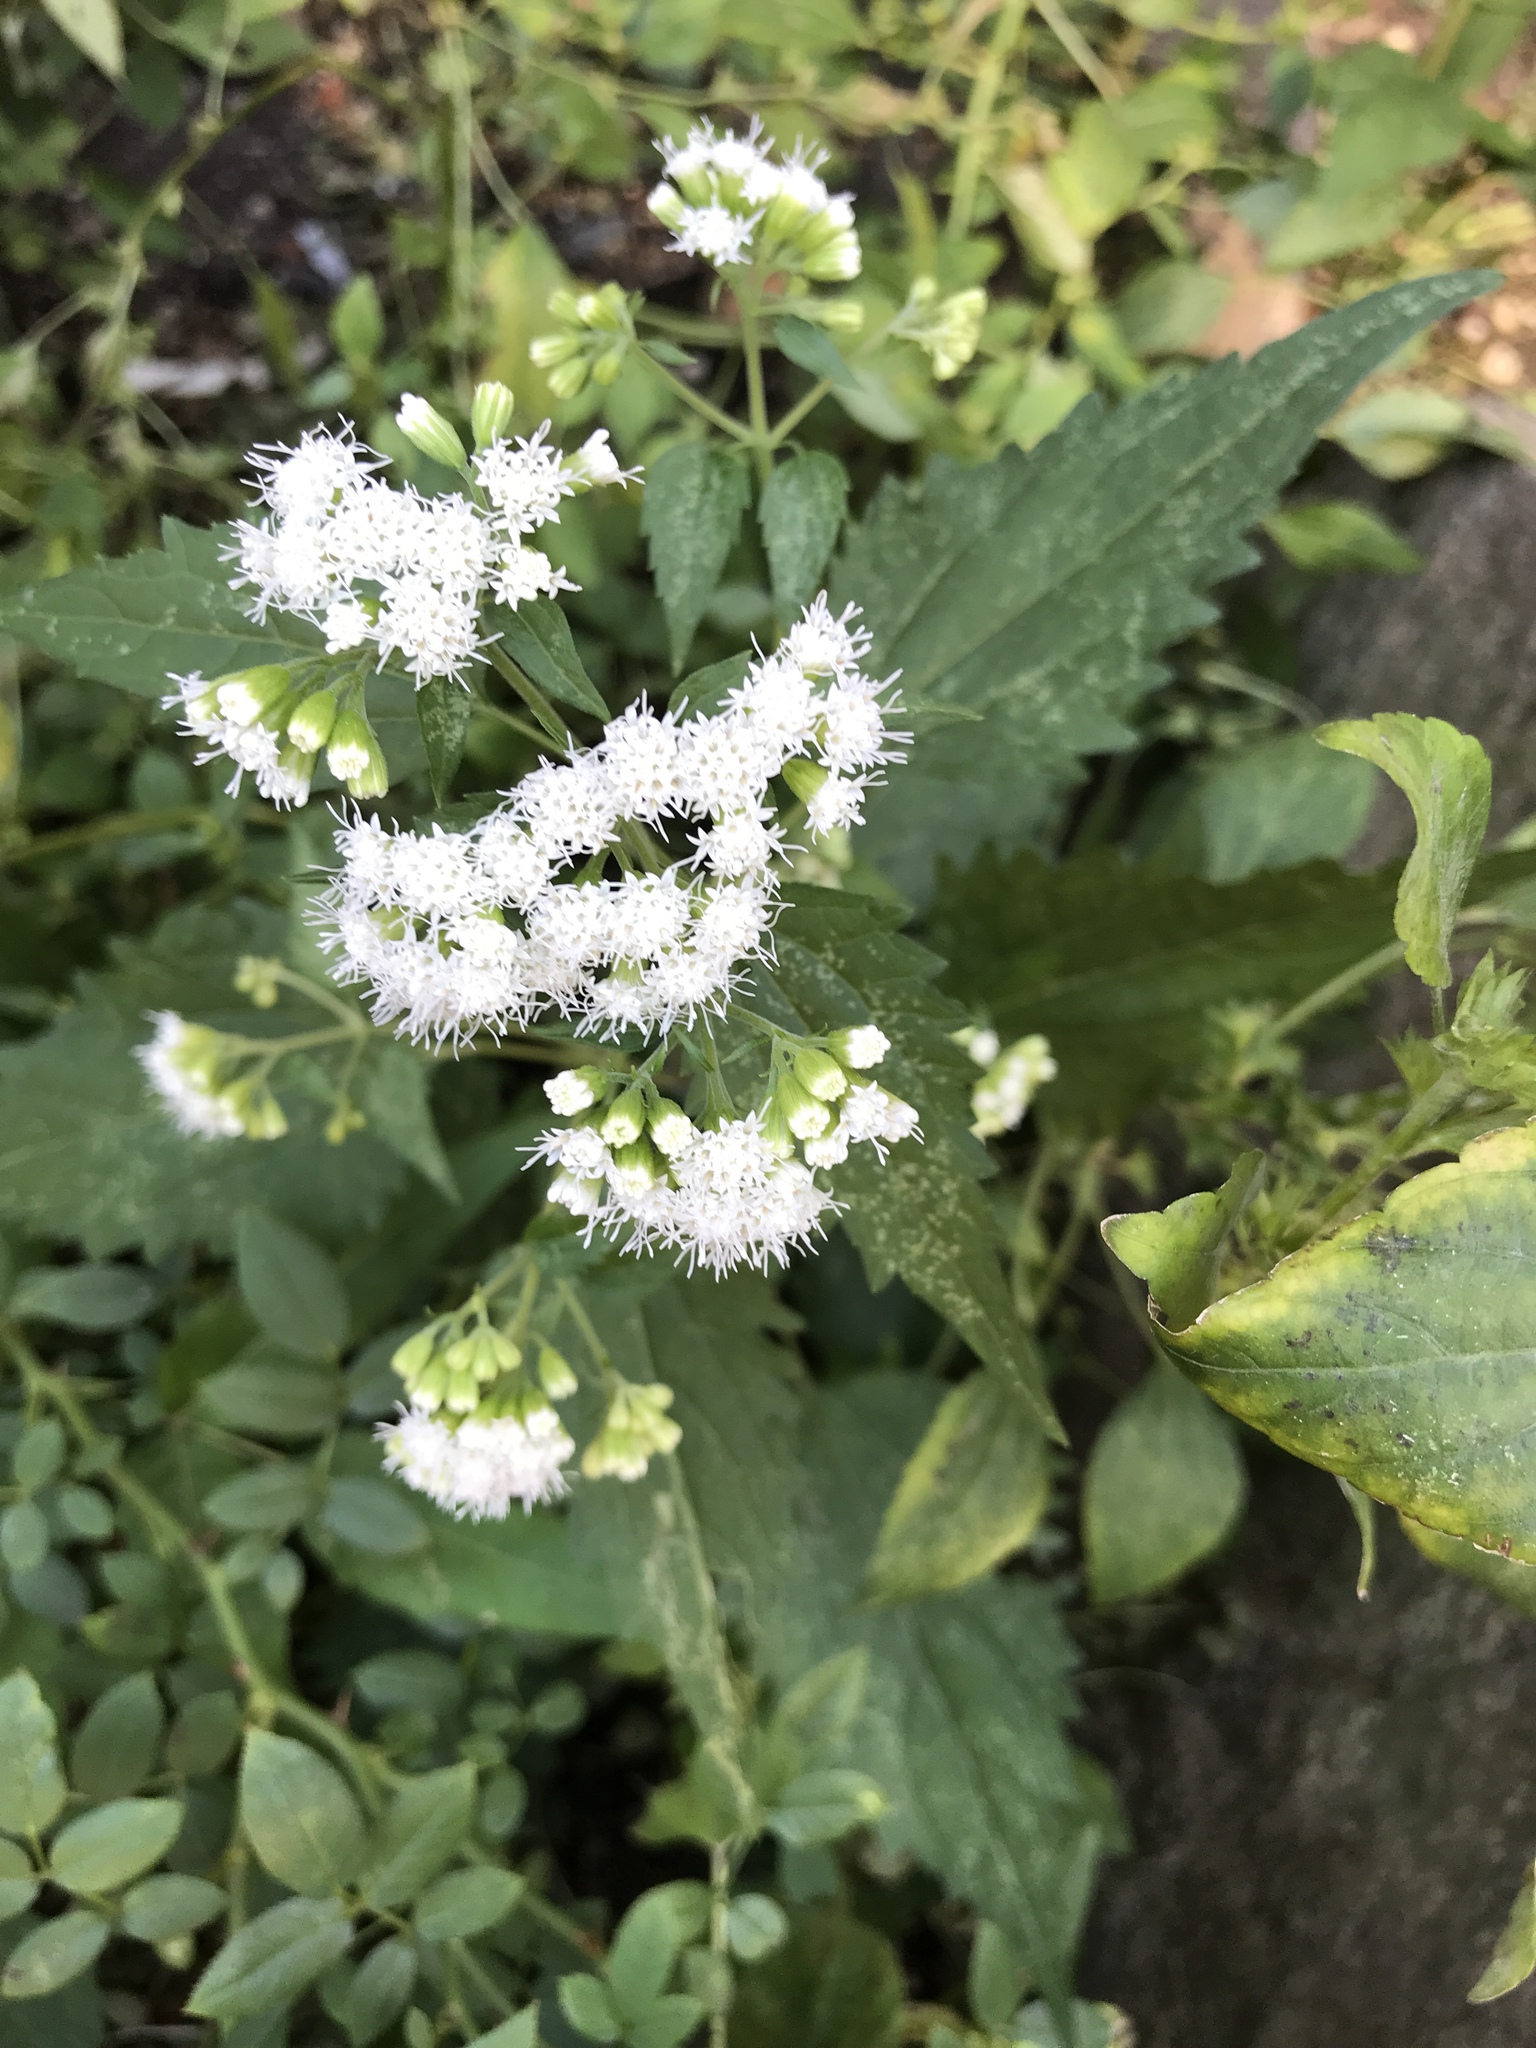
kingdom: Plantae
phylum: Tracheophyta
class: Magnoliopsida
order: Asterales
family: Asteraceae
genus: Ageratina
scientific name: Ageratina altissima
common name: White snakeroot
